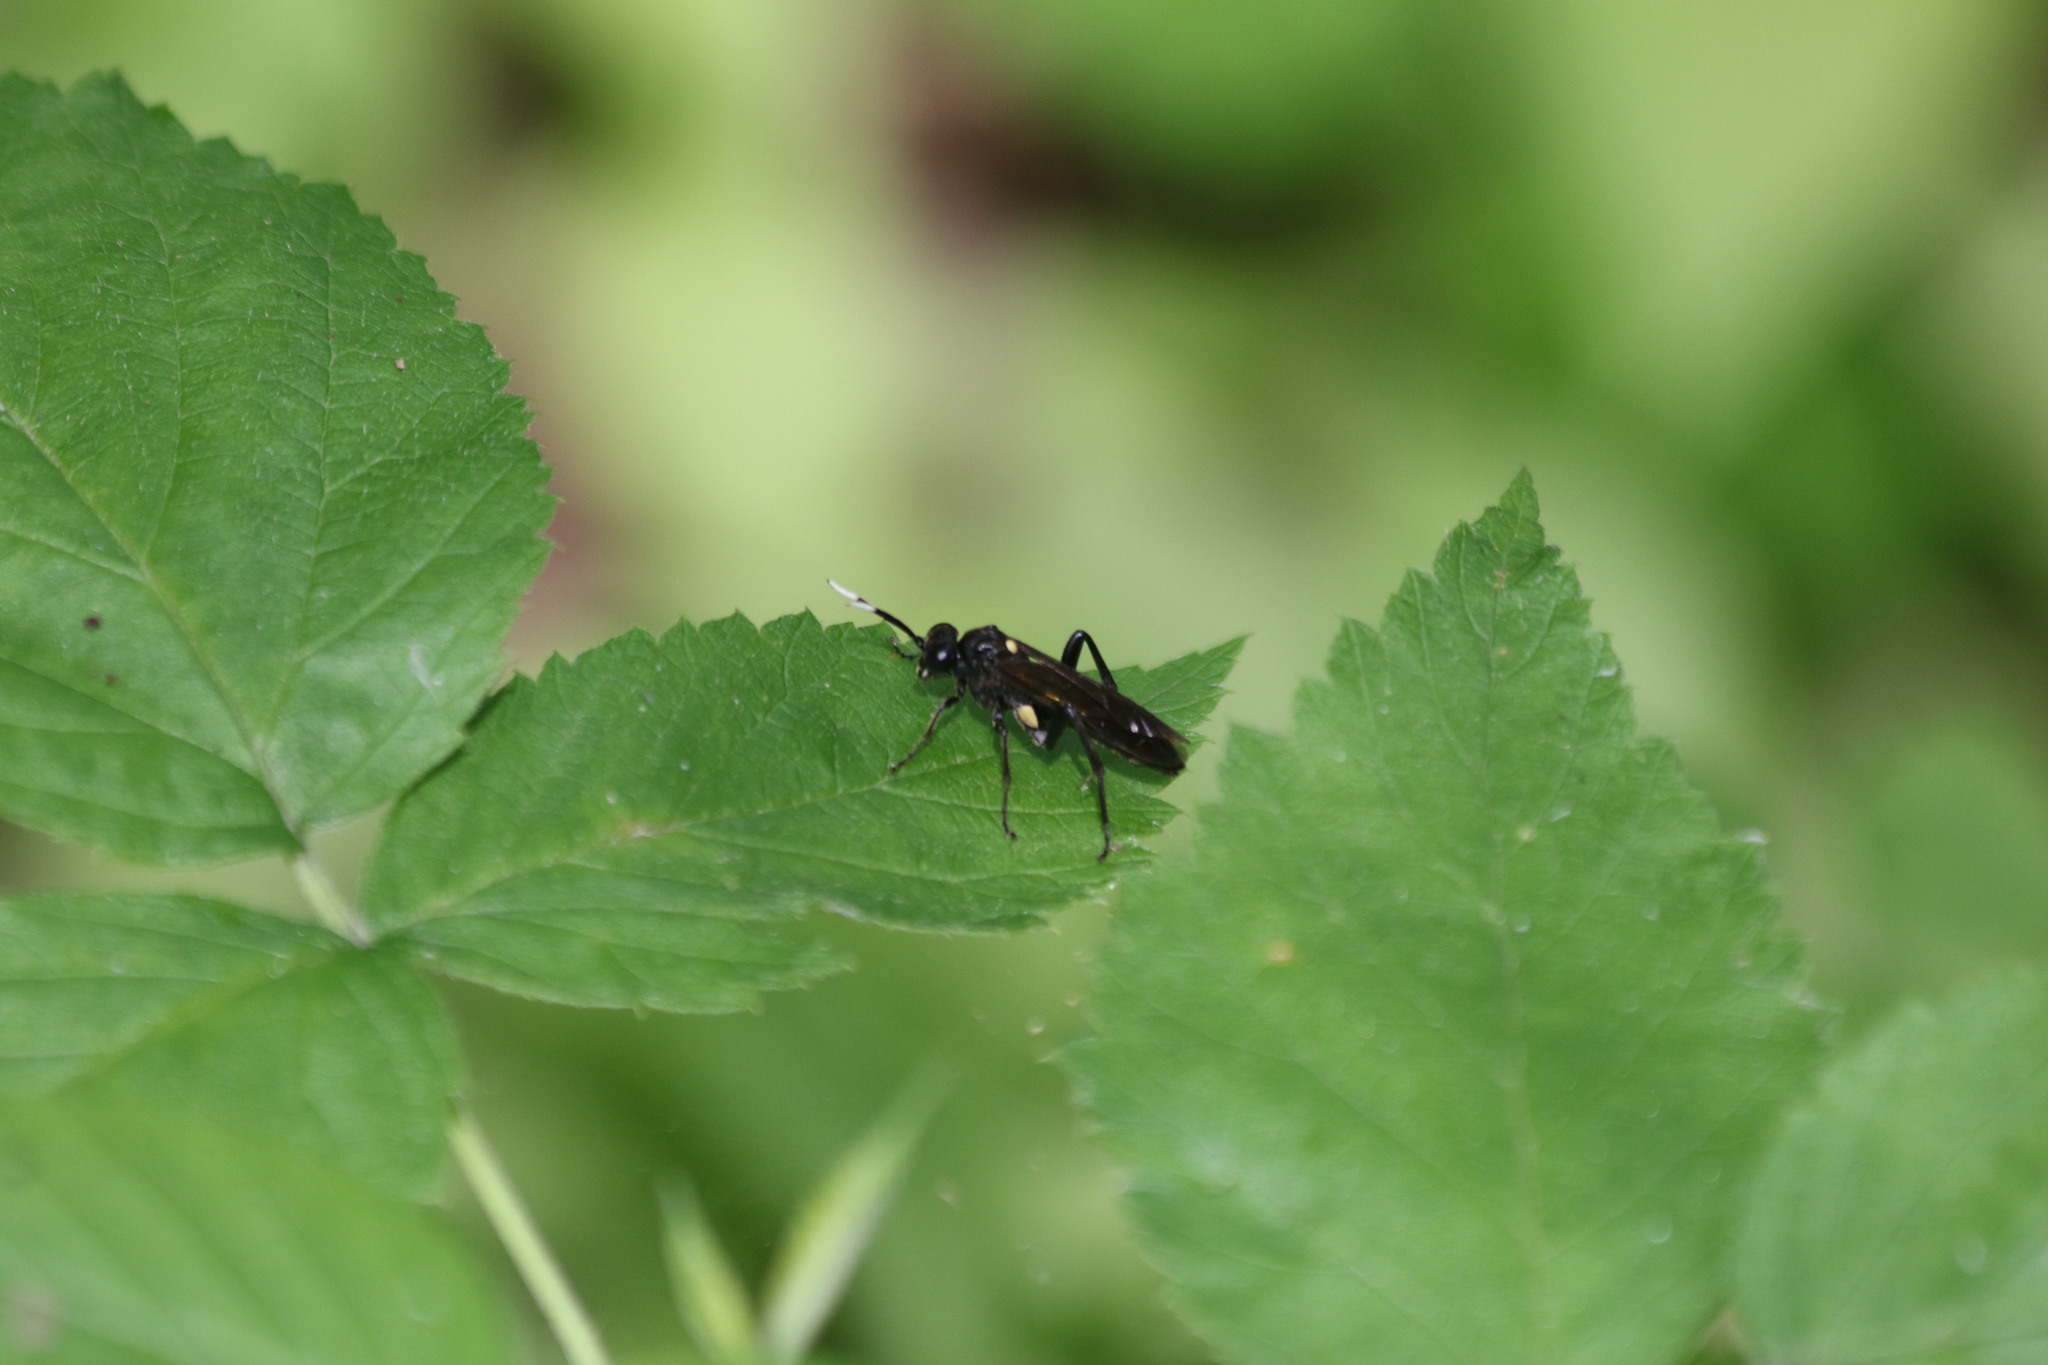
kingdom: Animalia
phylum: Arthropoda
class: Insecta
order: Hymenoptera
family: Tenthredinidae
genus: Macrophya
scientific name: Macrophya infumata
